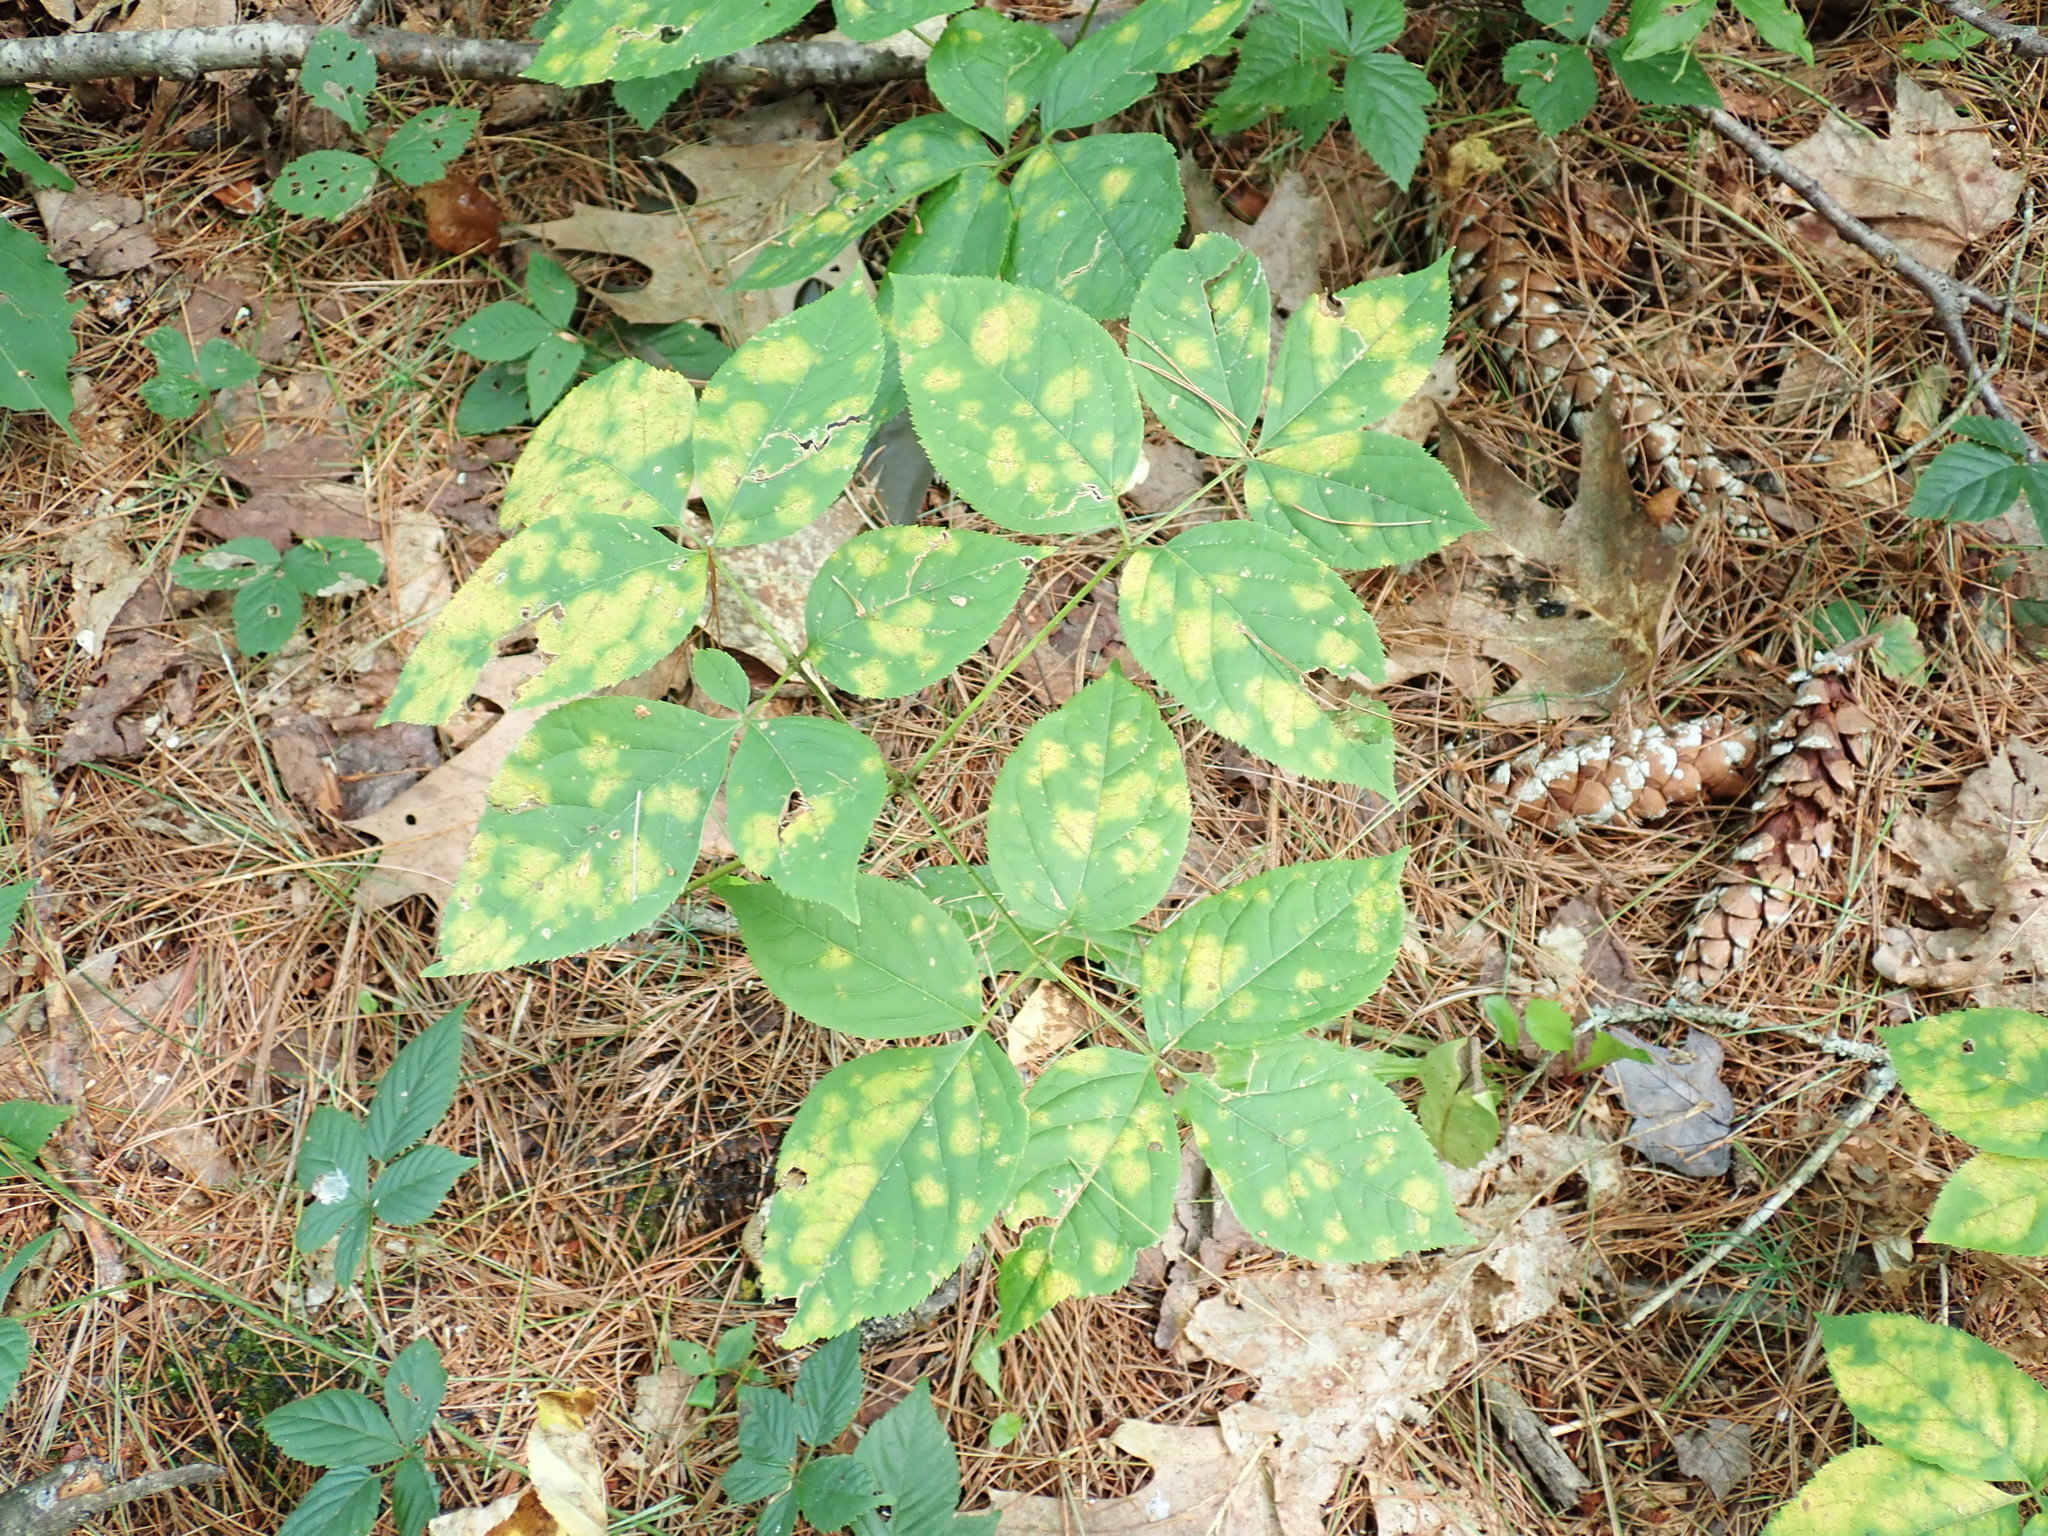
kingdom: Plantae
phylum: Tracheophyta
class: Magnoliopsida
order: Apiales
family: Araliaceae
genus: Aralia
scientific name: Aralia nudicaulis
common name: Wild sarsaparilla
